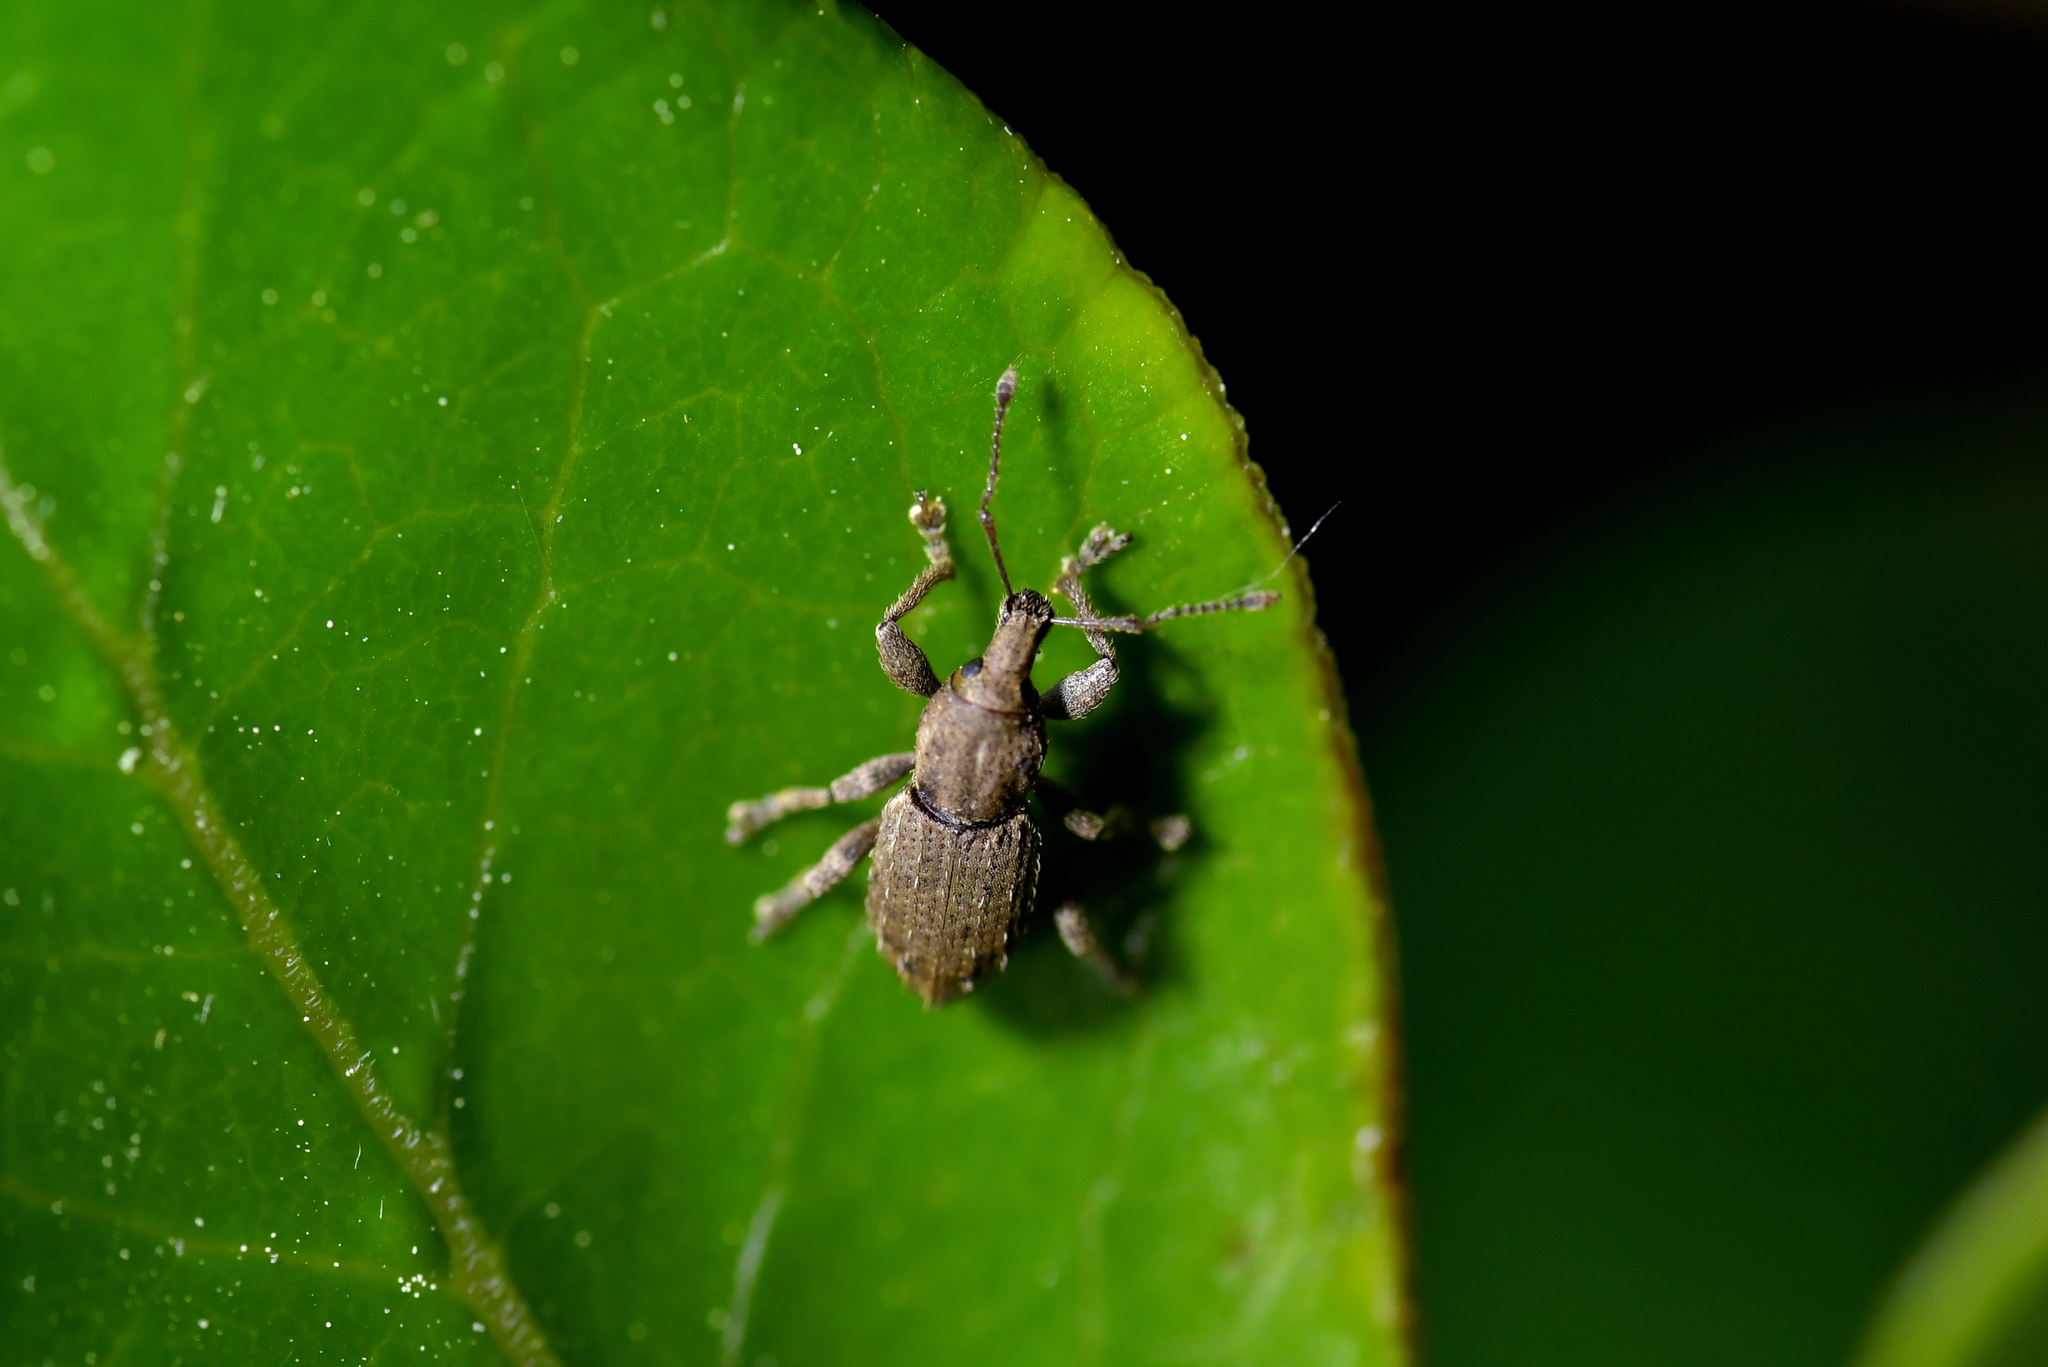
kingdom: Animalia
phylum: Arthropoda
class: Insecta
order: Coleoptera
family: Curculionidae
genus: Chalepistes
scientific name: Chalepistes compressus
